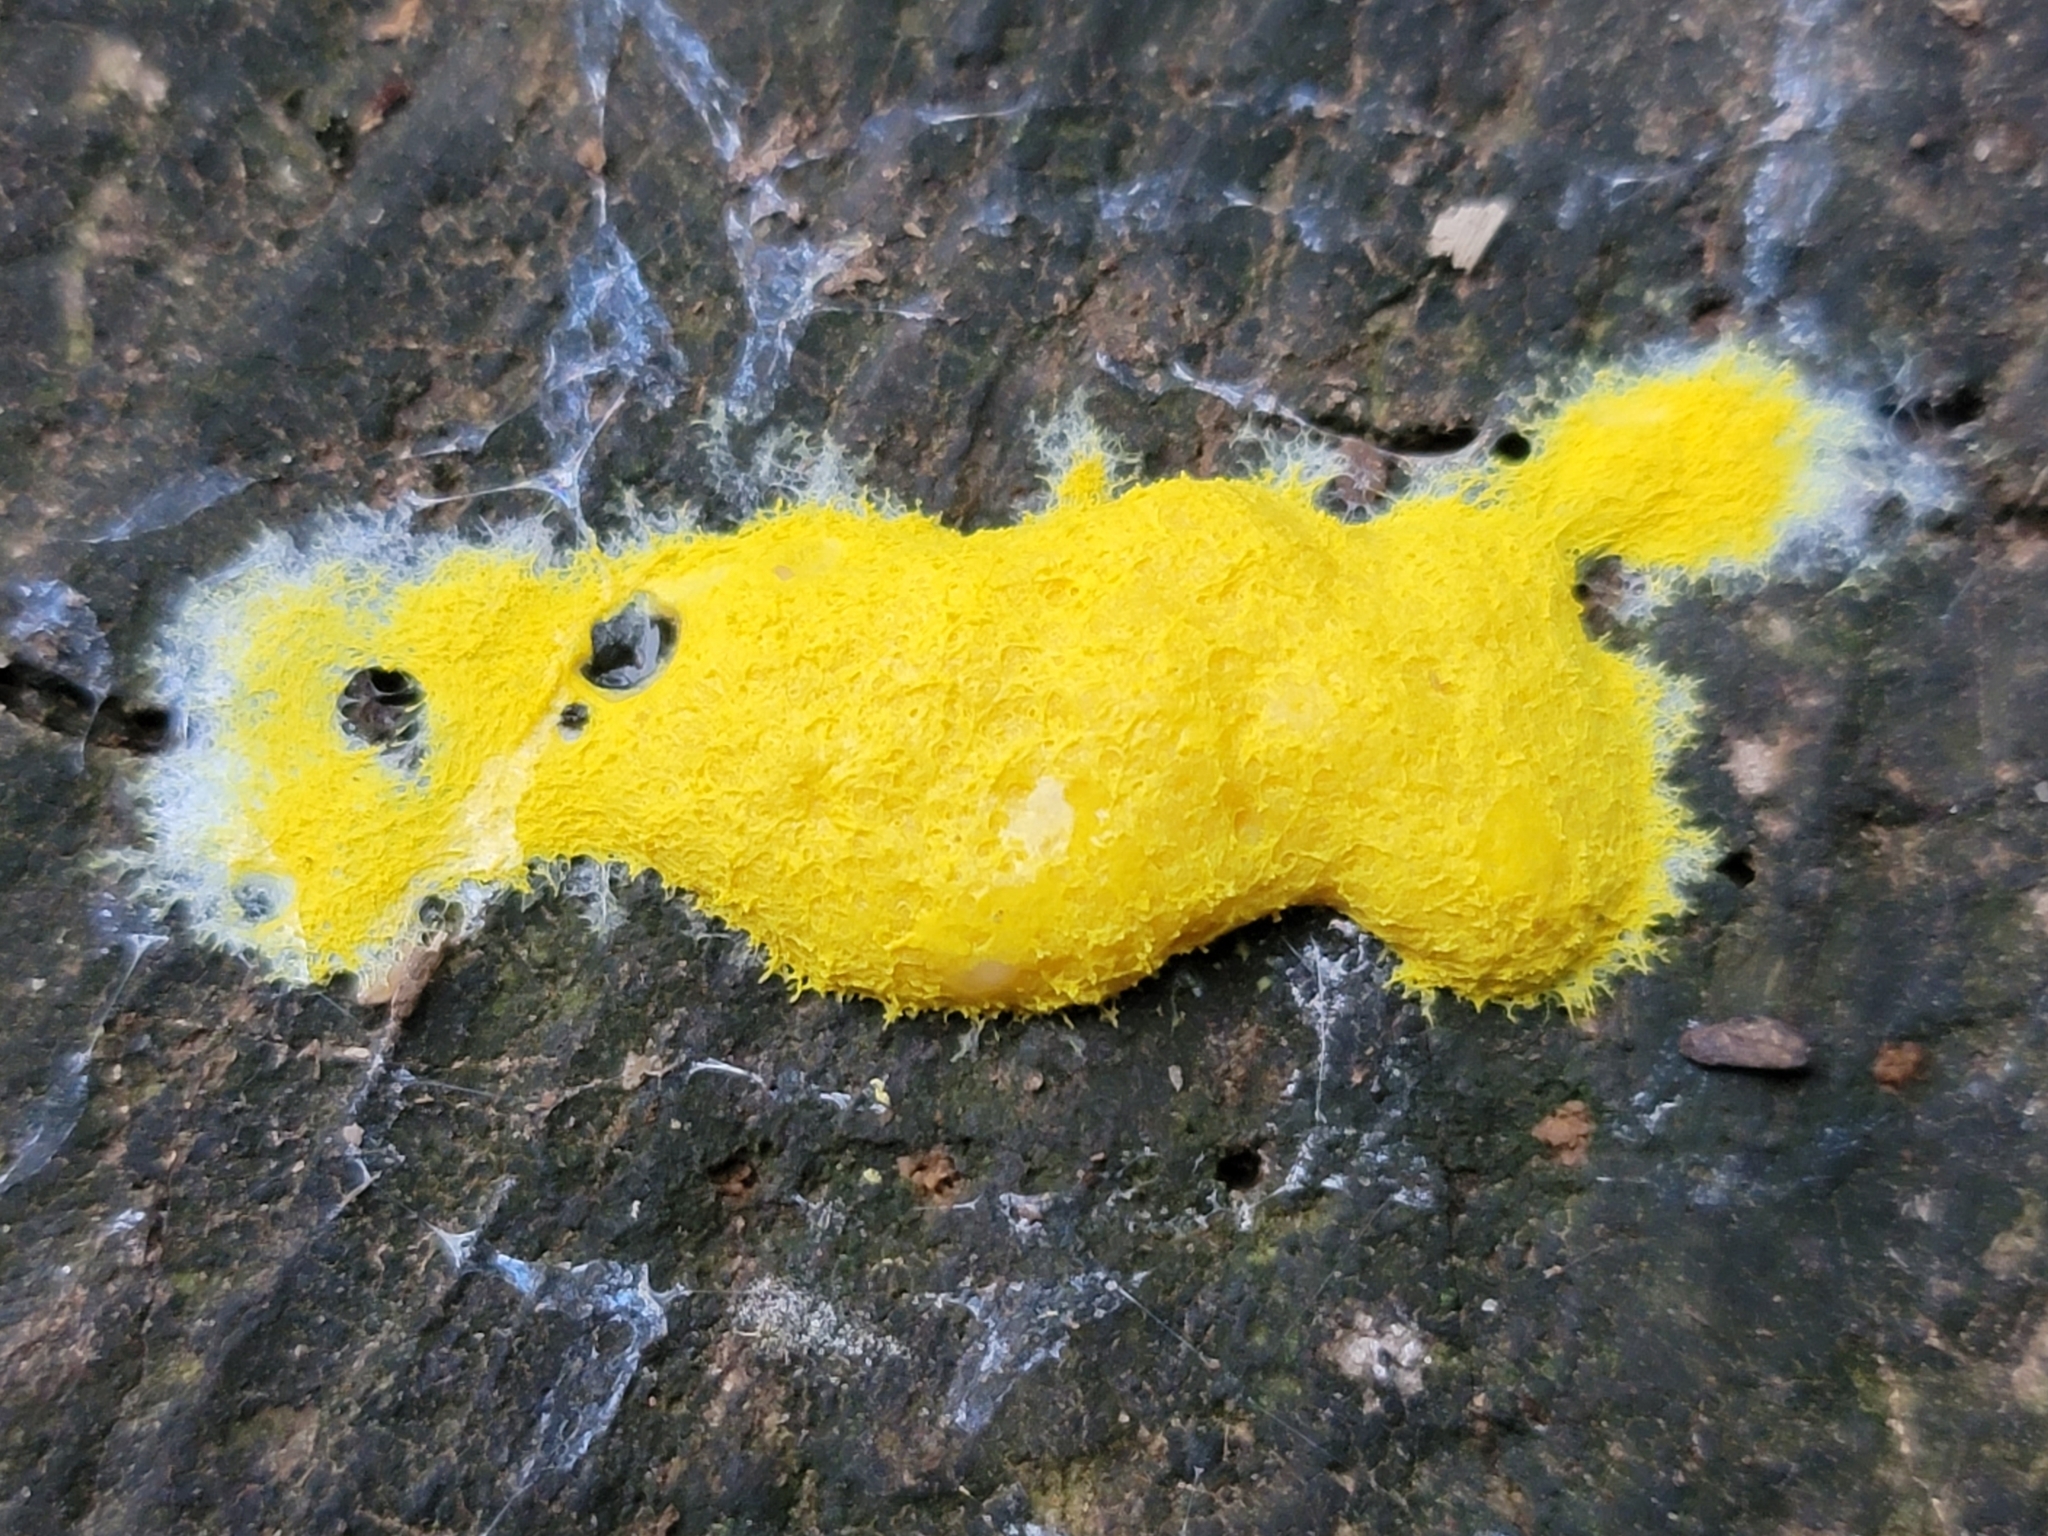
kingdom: Protozoa
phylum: Mycetozoa
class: Myxomycetes
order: Physarales
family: Physaraceae
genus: Fuligo
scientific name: Fuligo septica
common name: Dog vomit slime mold
